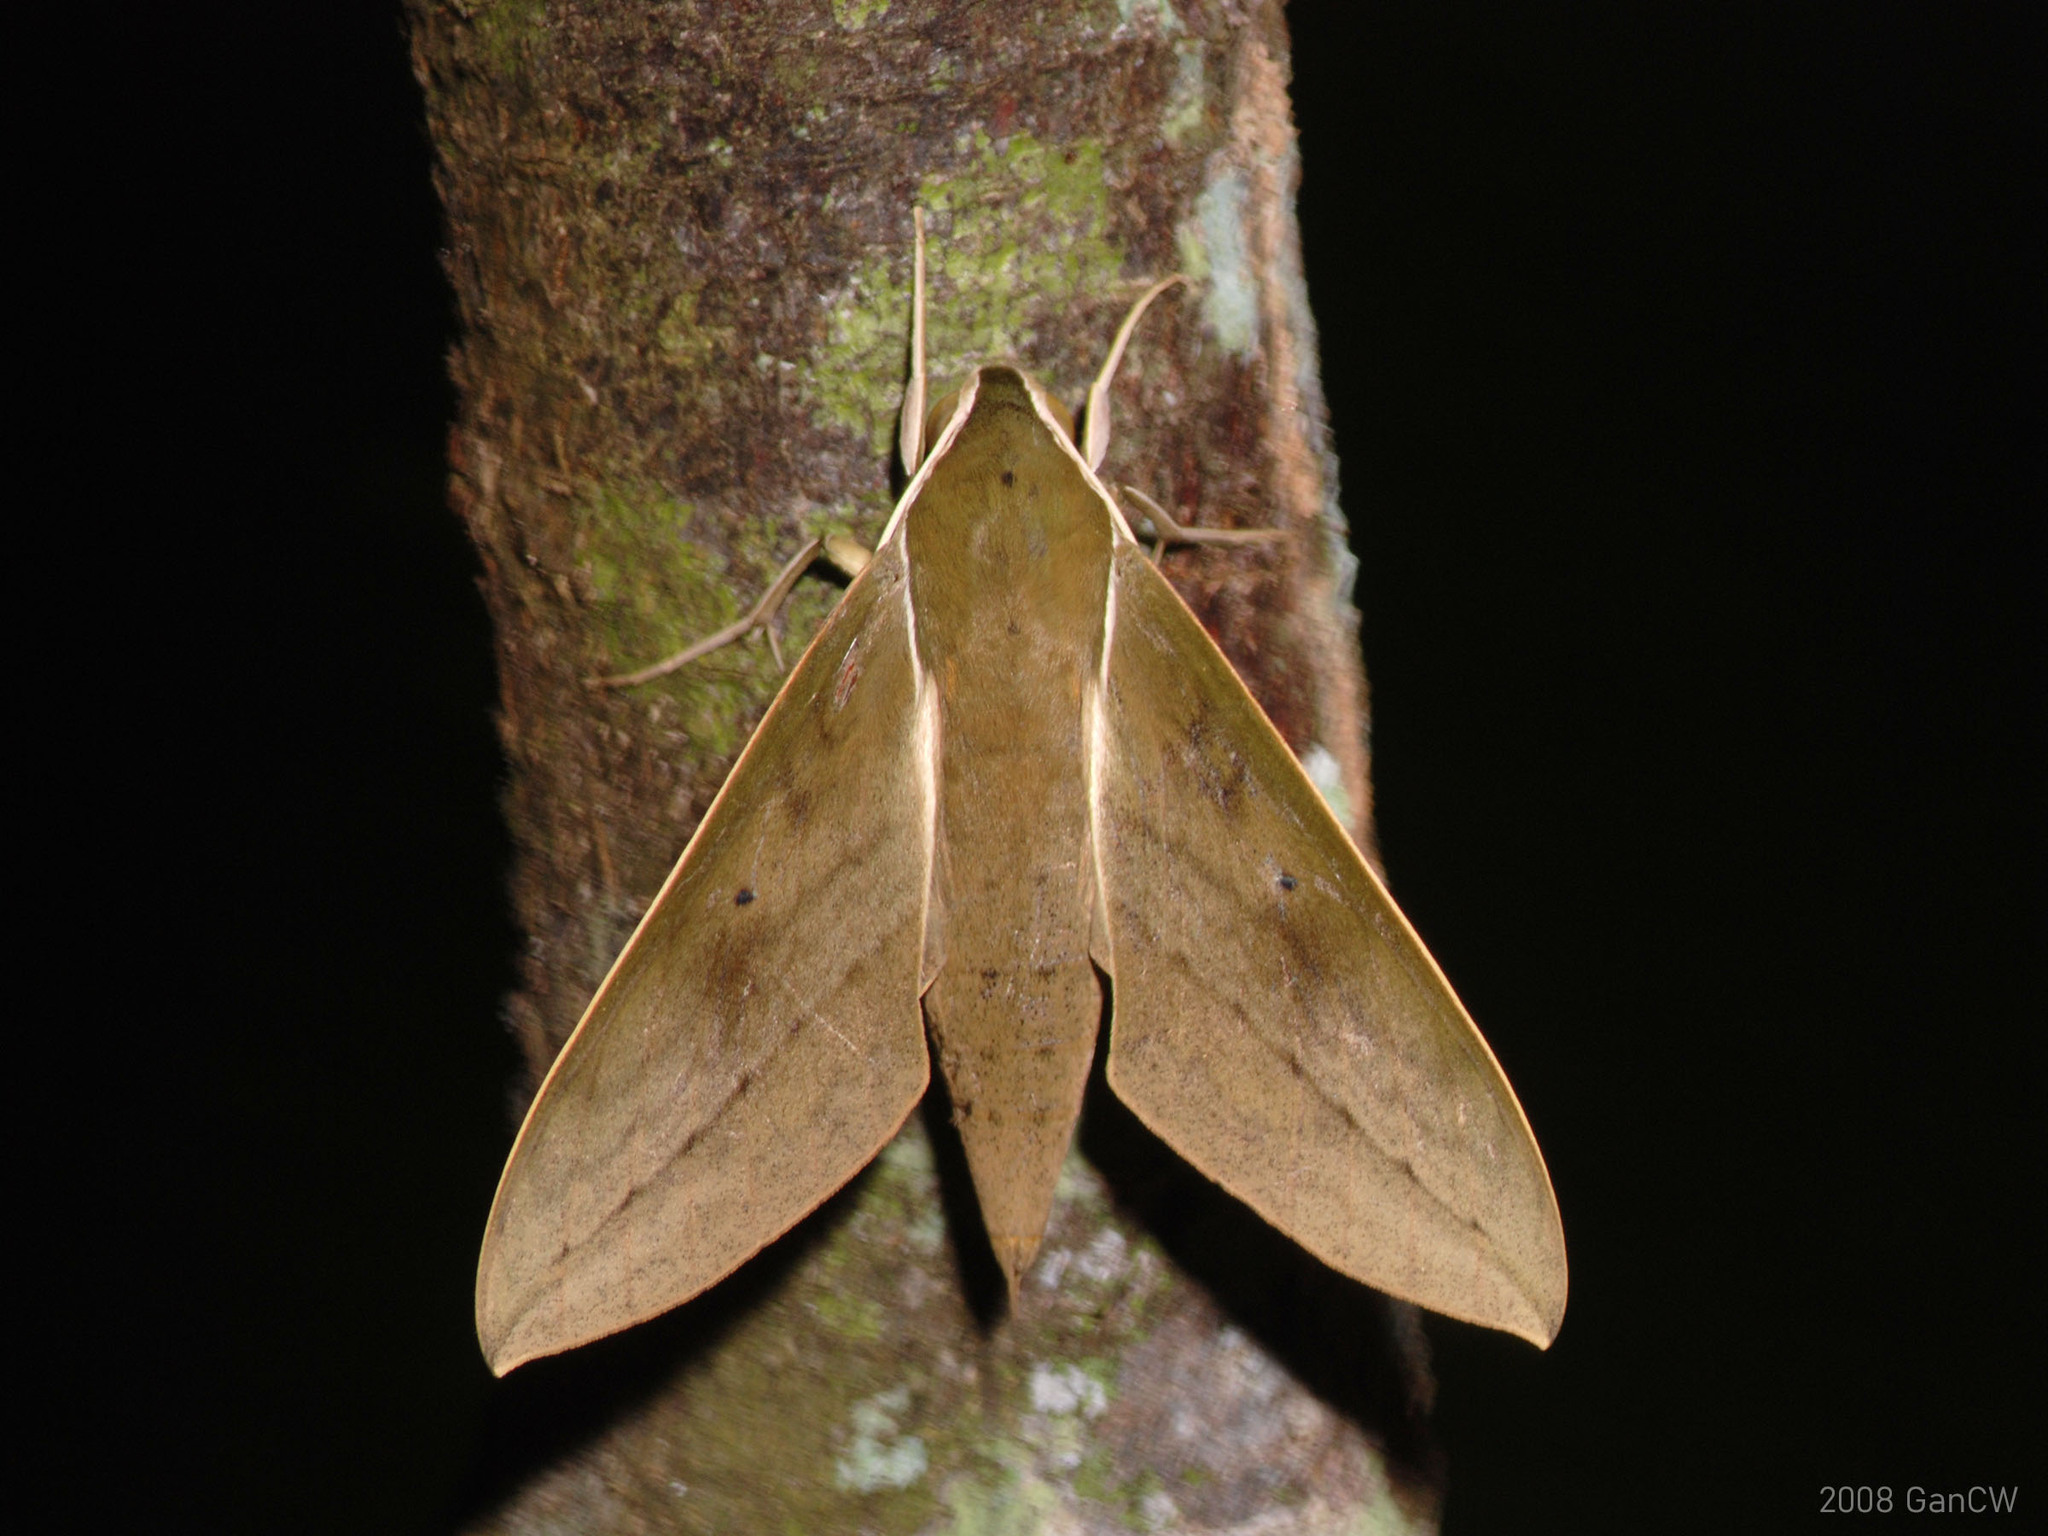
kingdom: Animalia
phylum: Arthropoda
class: Insecta
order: Lepidoptera
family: Sphingidae
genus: Theretra
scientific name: Theretra boisduvalii
